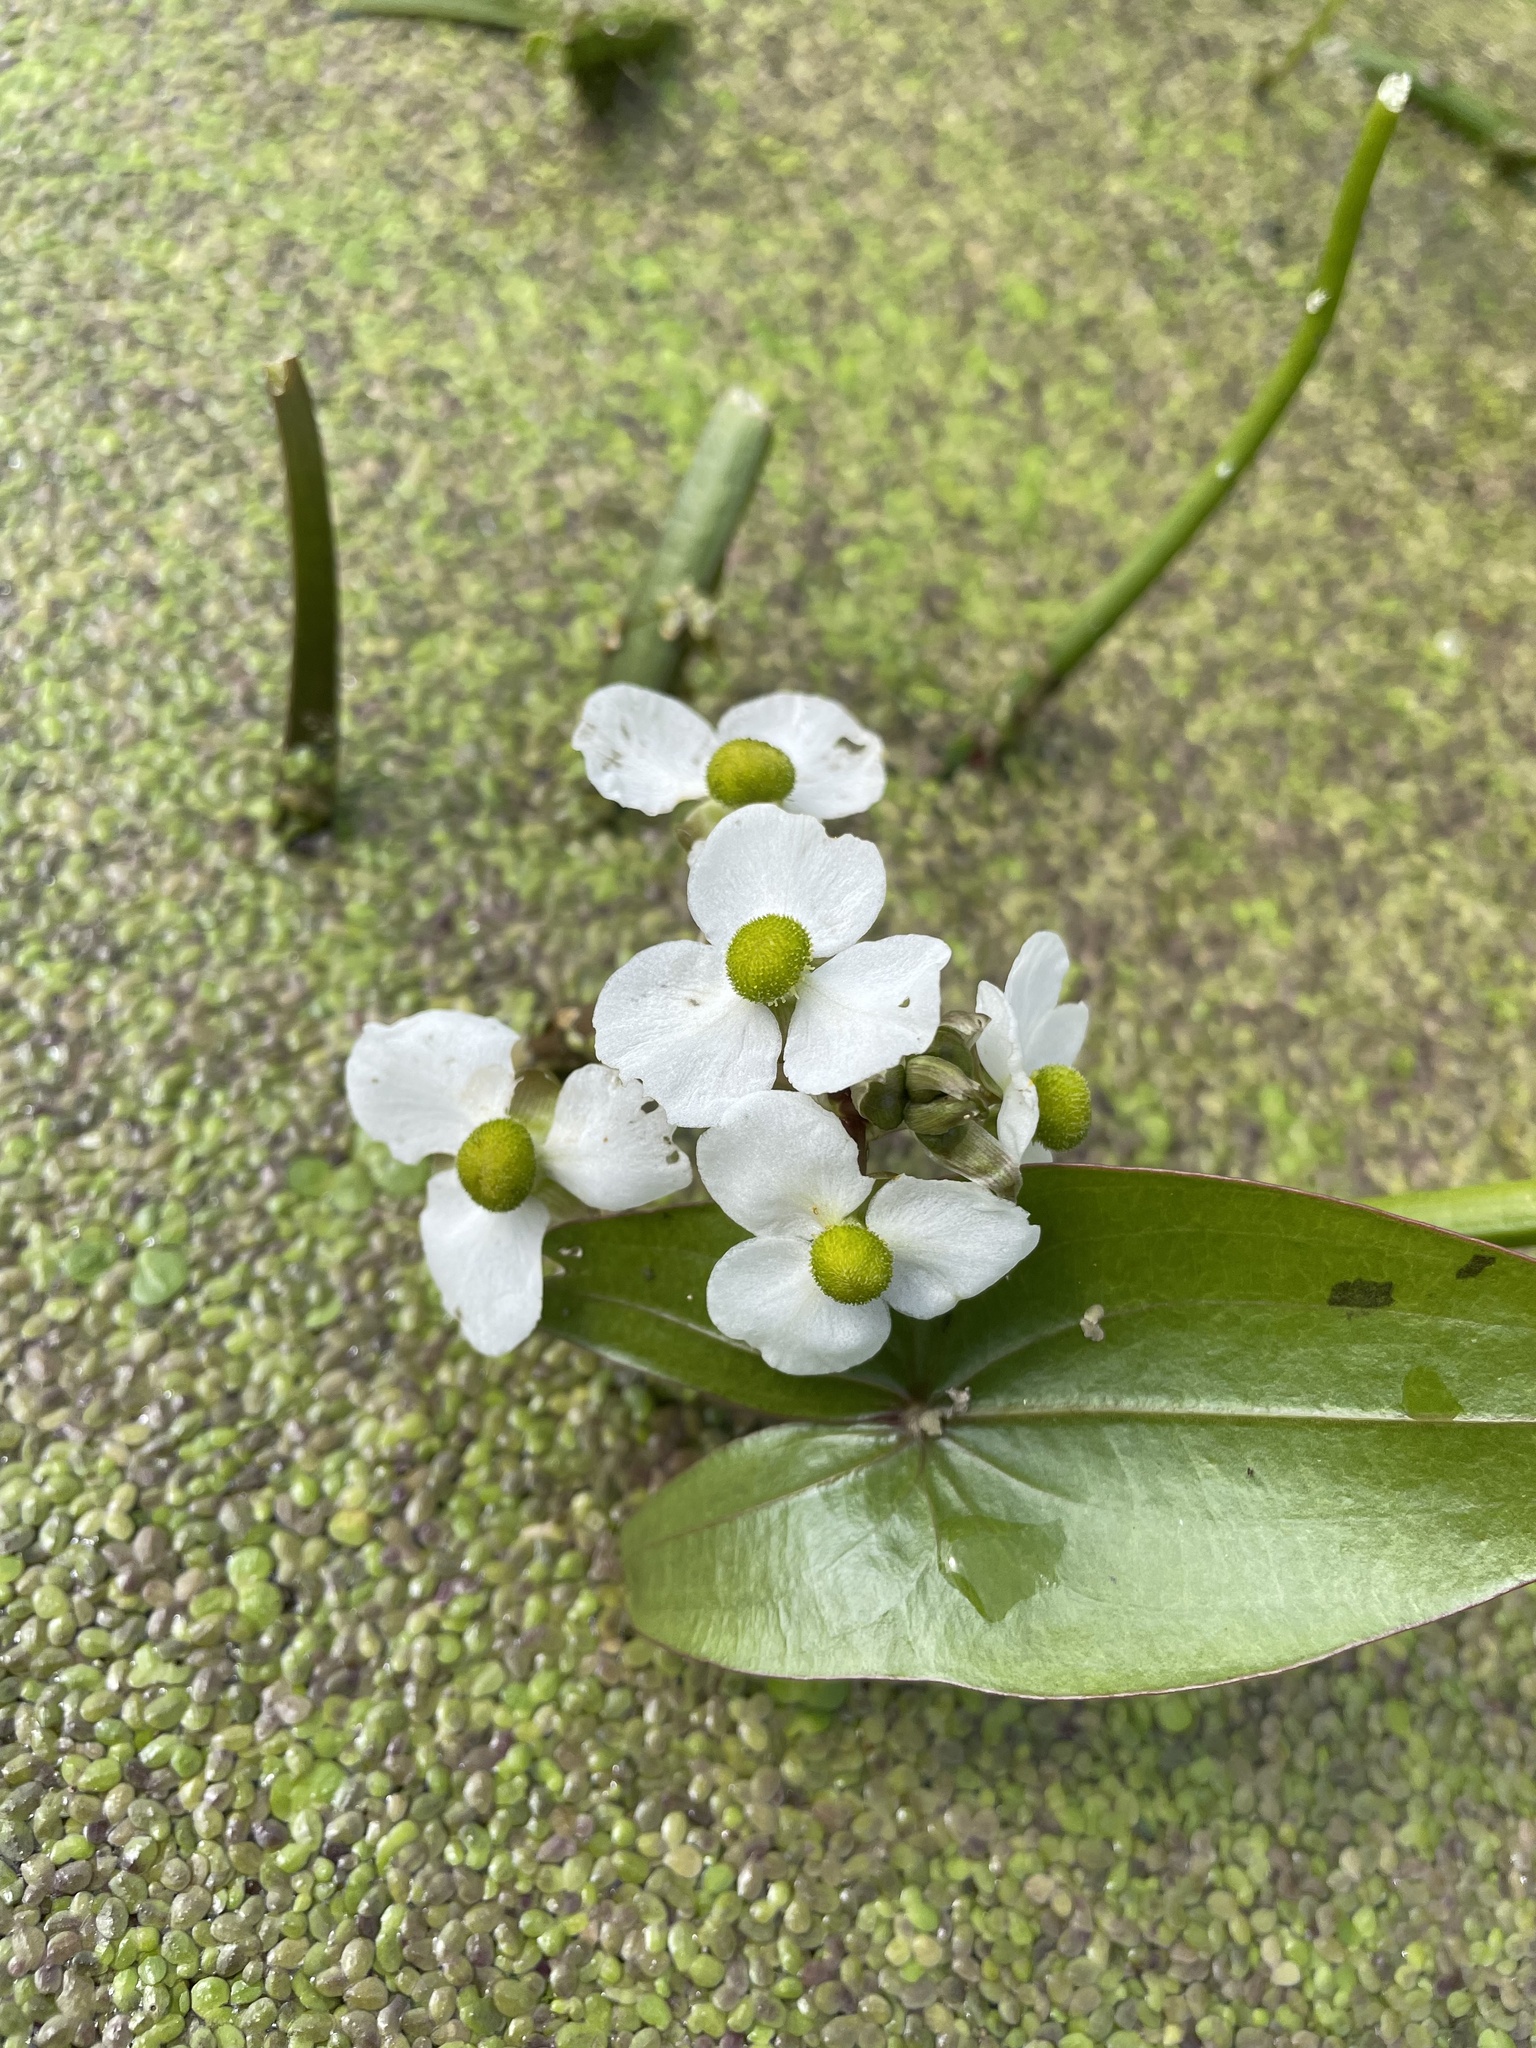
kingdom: Plantae
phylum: Tracheophyta
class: Liliopsida
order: Alismatales
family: Alismataceae
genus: Sagittaria
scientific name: Sagittaria cuneata
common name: Northern arrowhead
